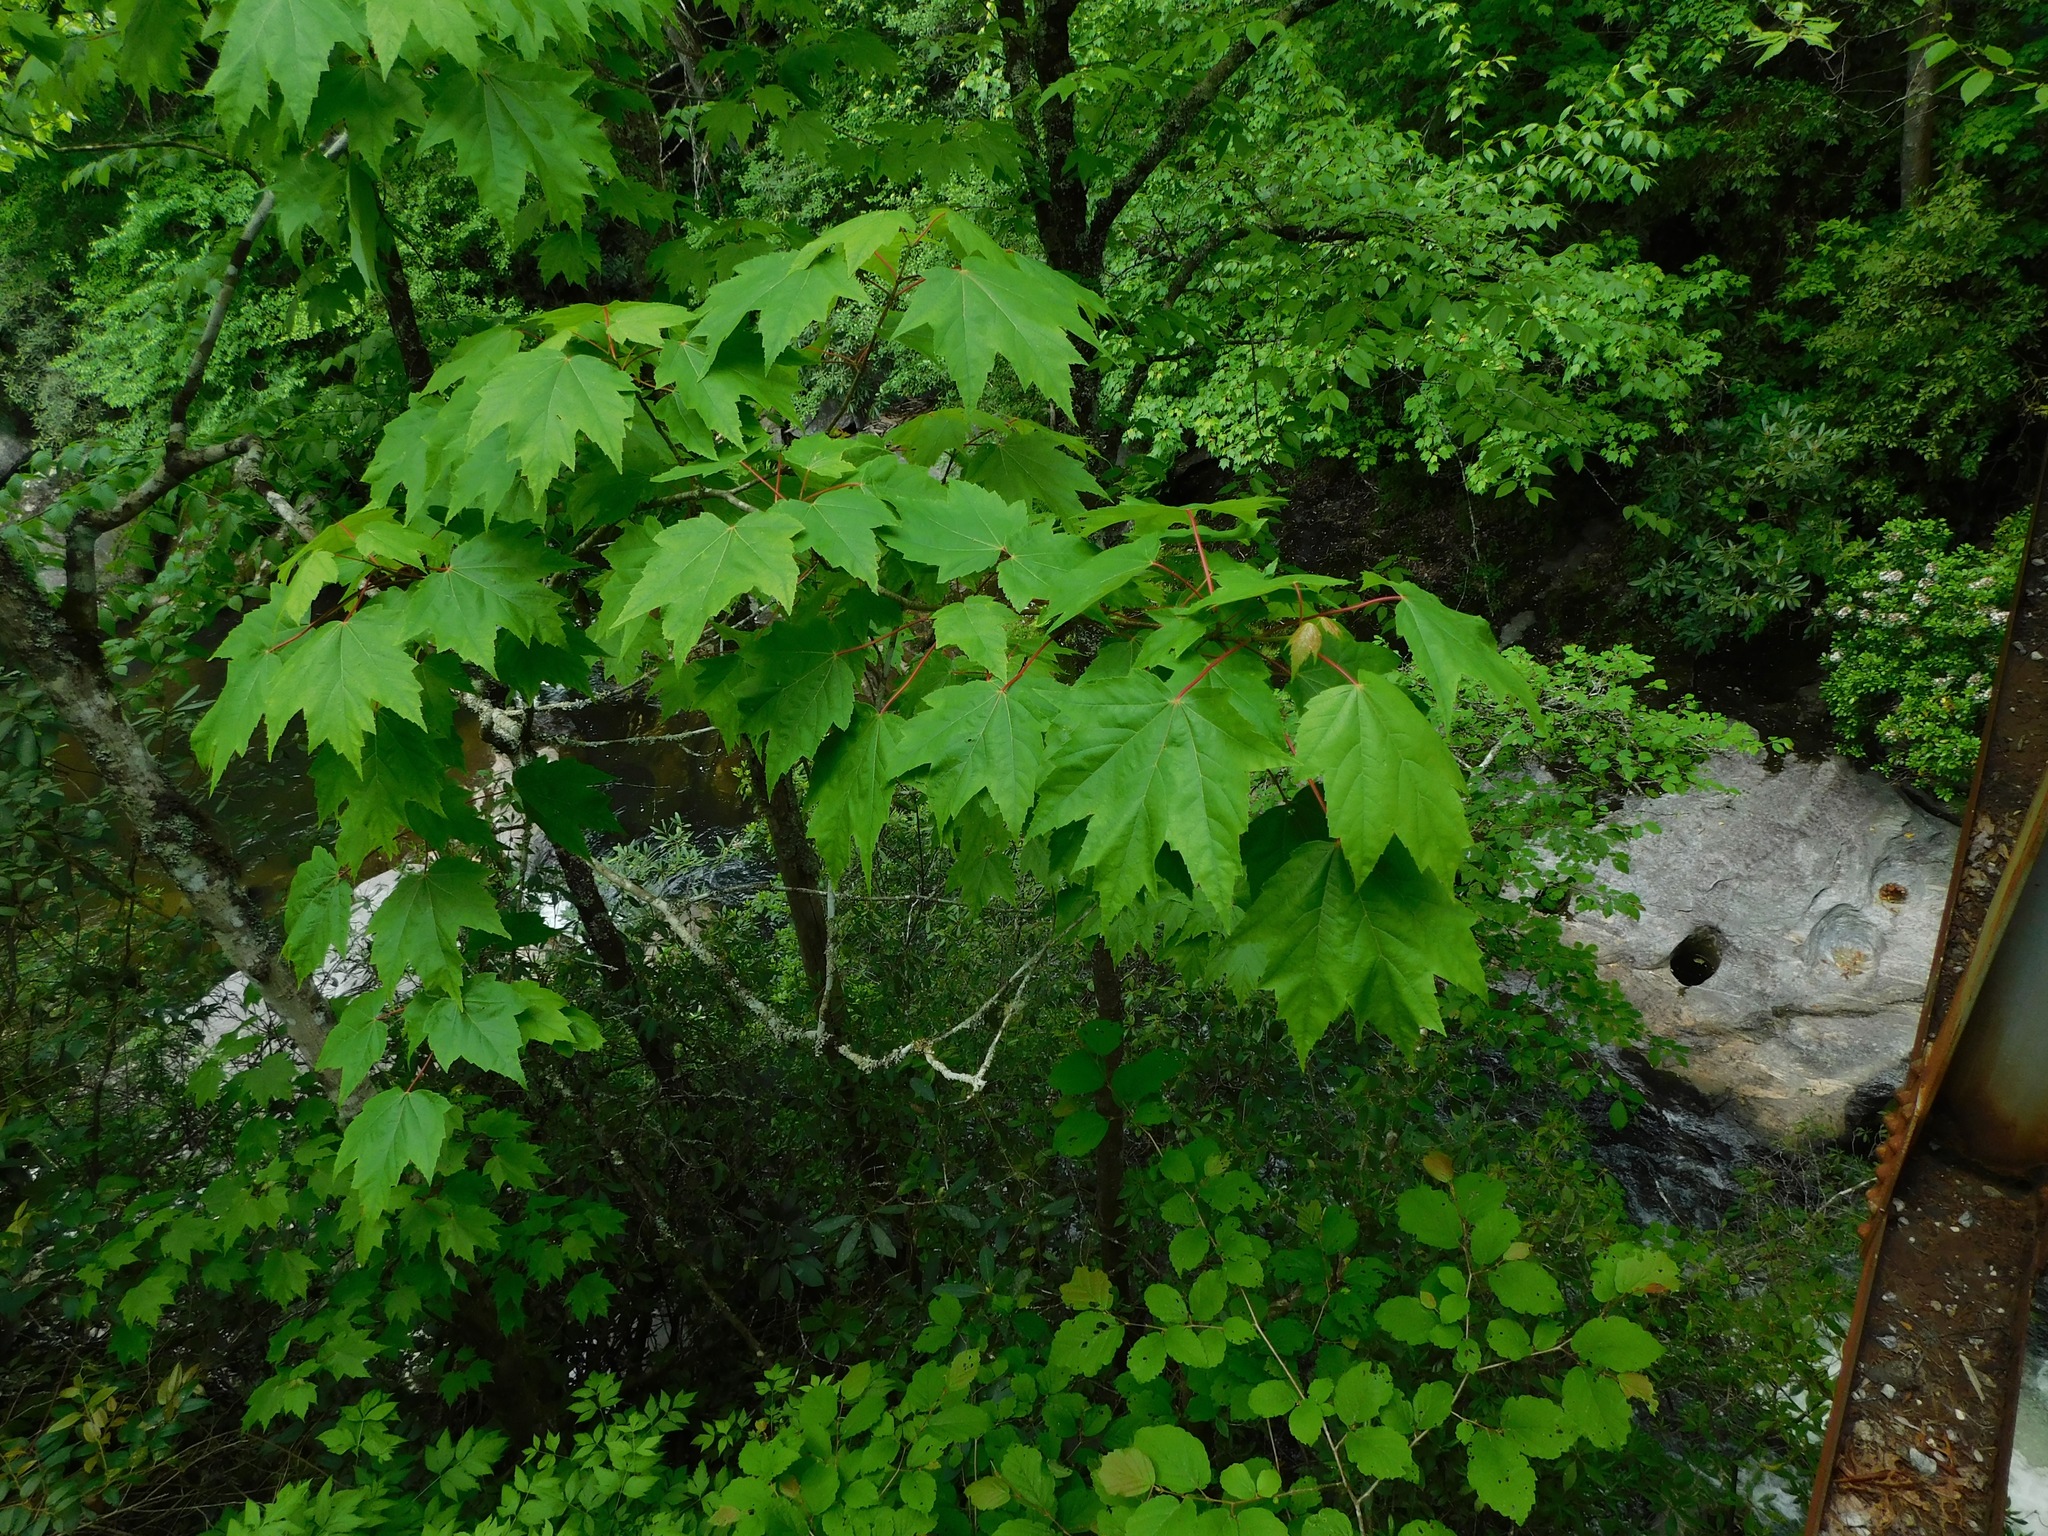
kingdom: Plantae
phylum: Tracheophyta
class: Magnoliopsida
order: Sapindales
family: Sapindaceae
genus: Acer
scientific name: Acer freemanii
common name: Freeman maple
